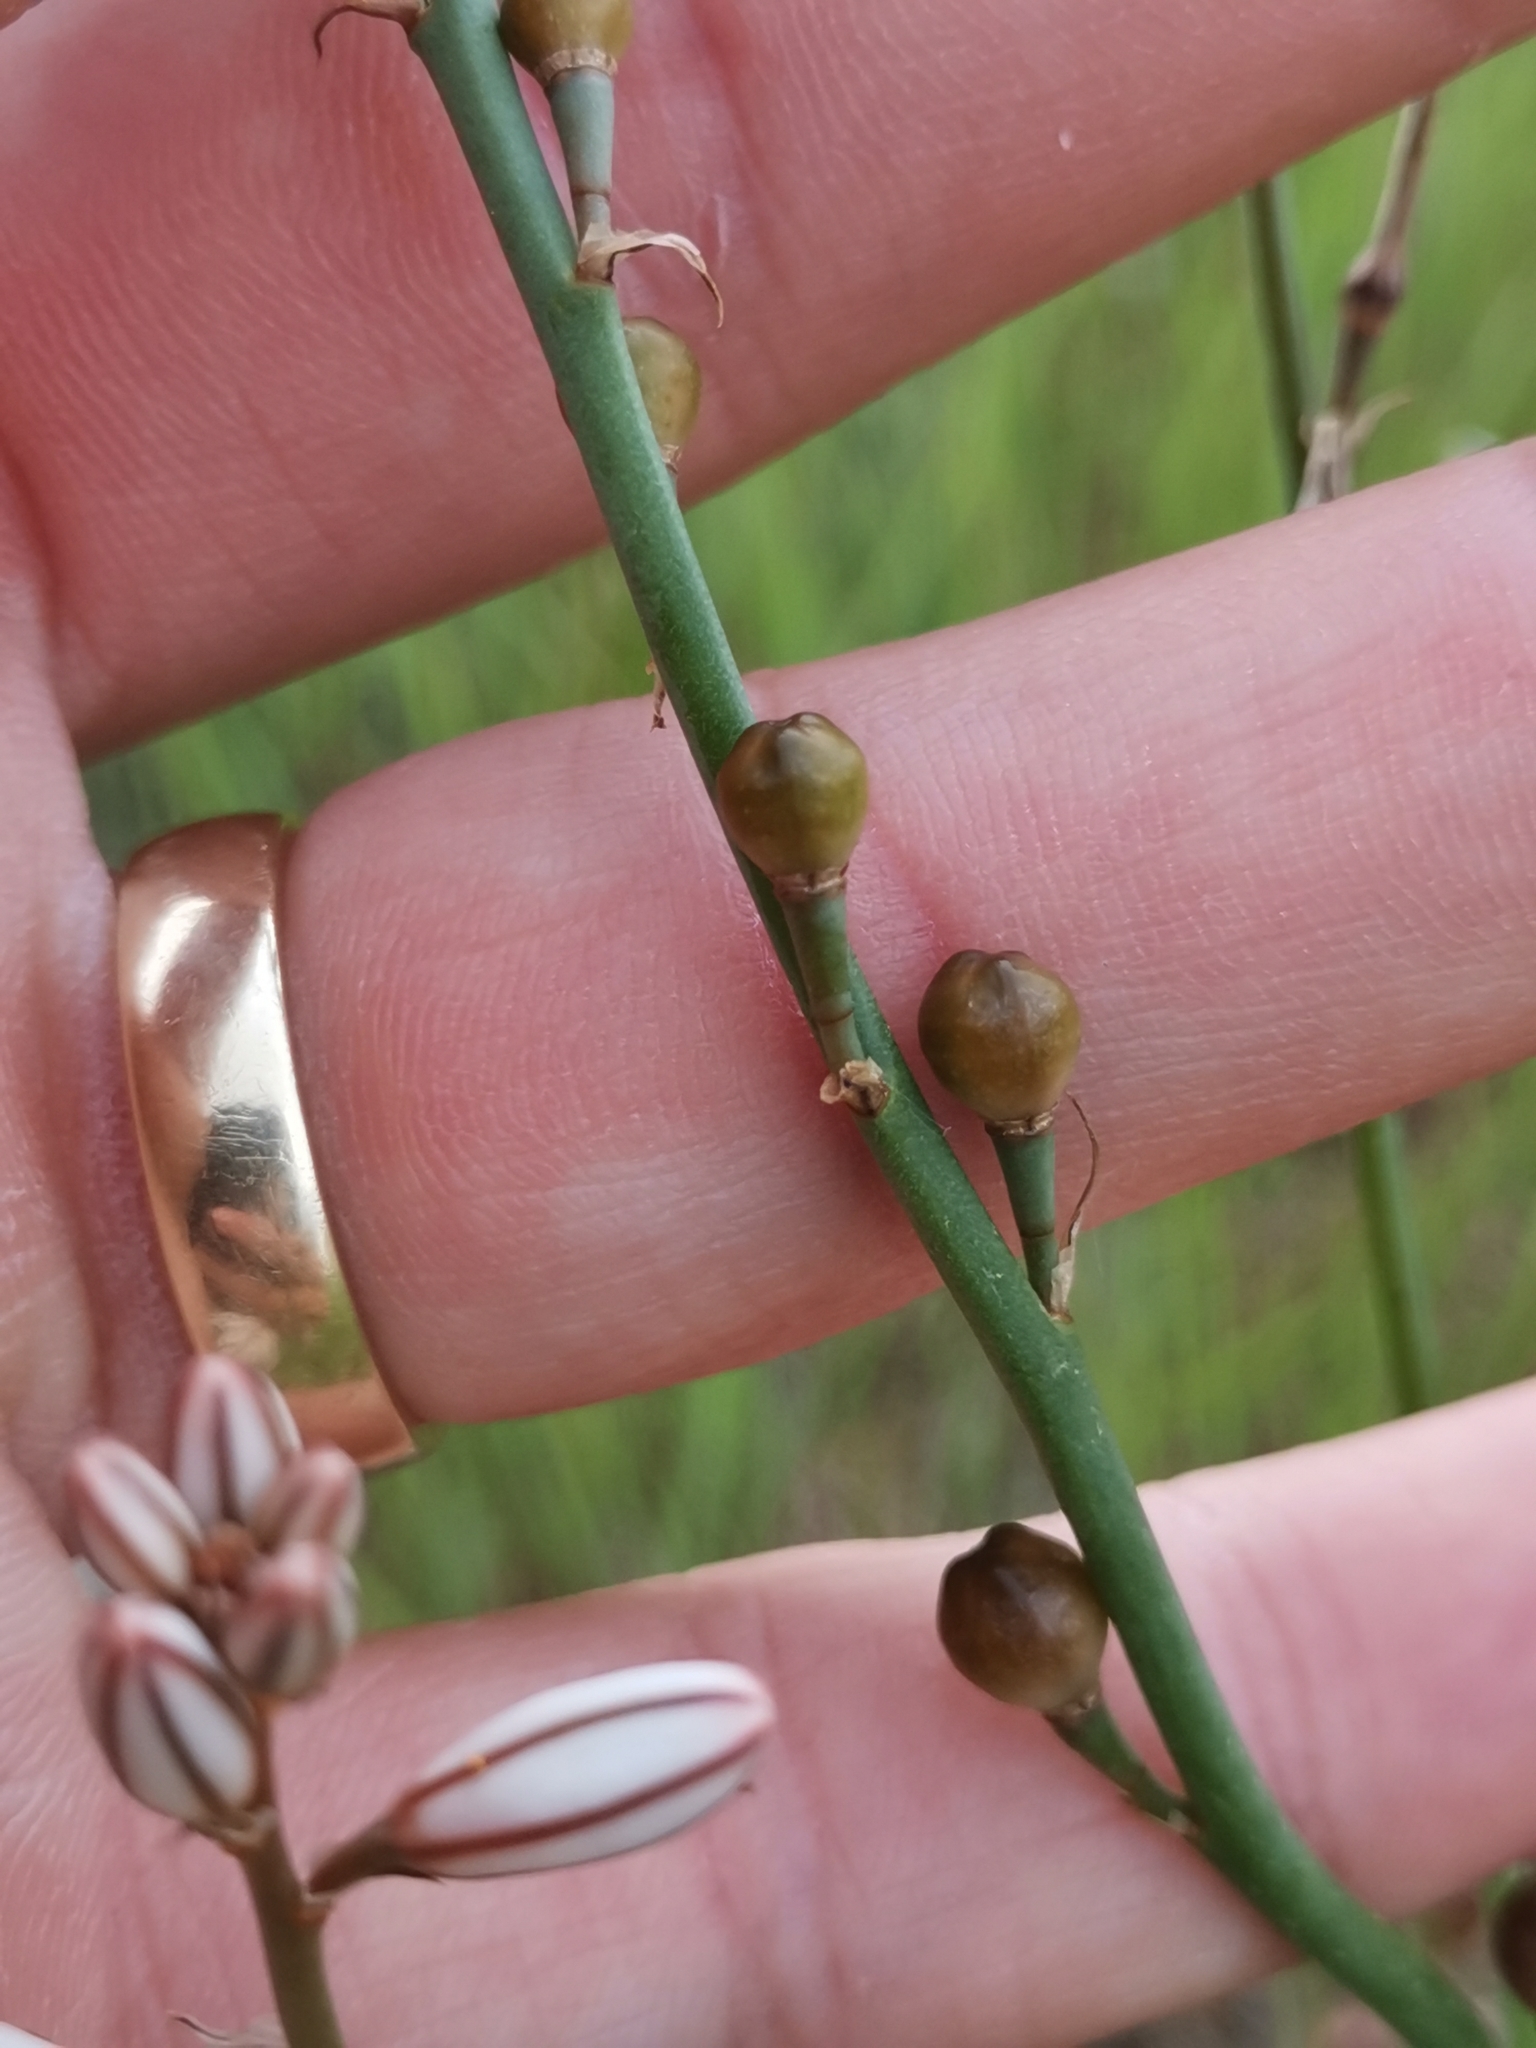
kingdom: Plantae
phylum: Tracheophyta
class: Liliopsida
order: Asparagales
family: Asphodelaceae
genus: Asphodelus
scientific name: Asphodelus fistulosus
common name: Onionweed
